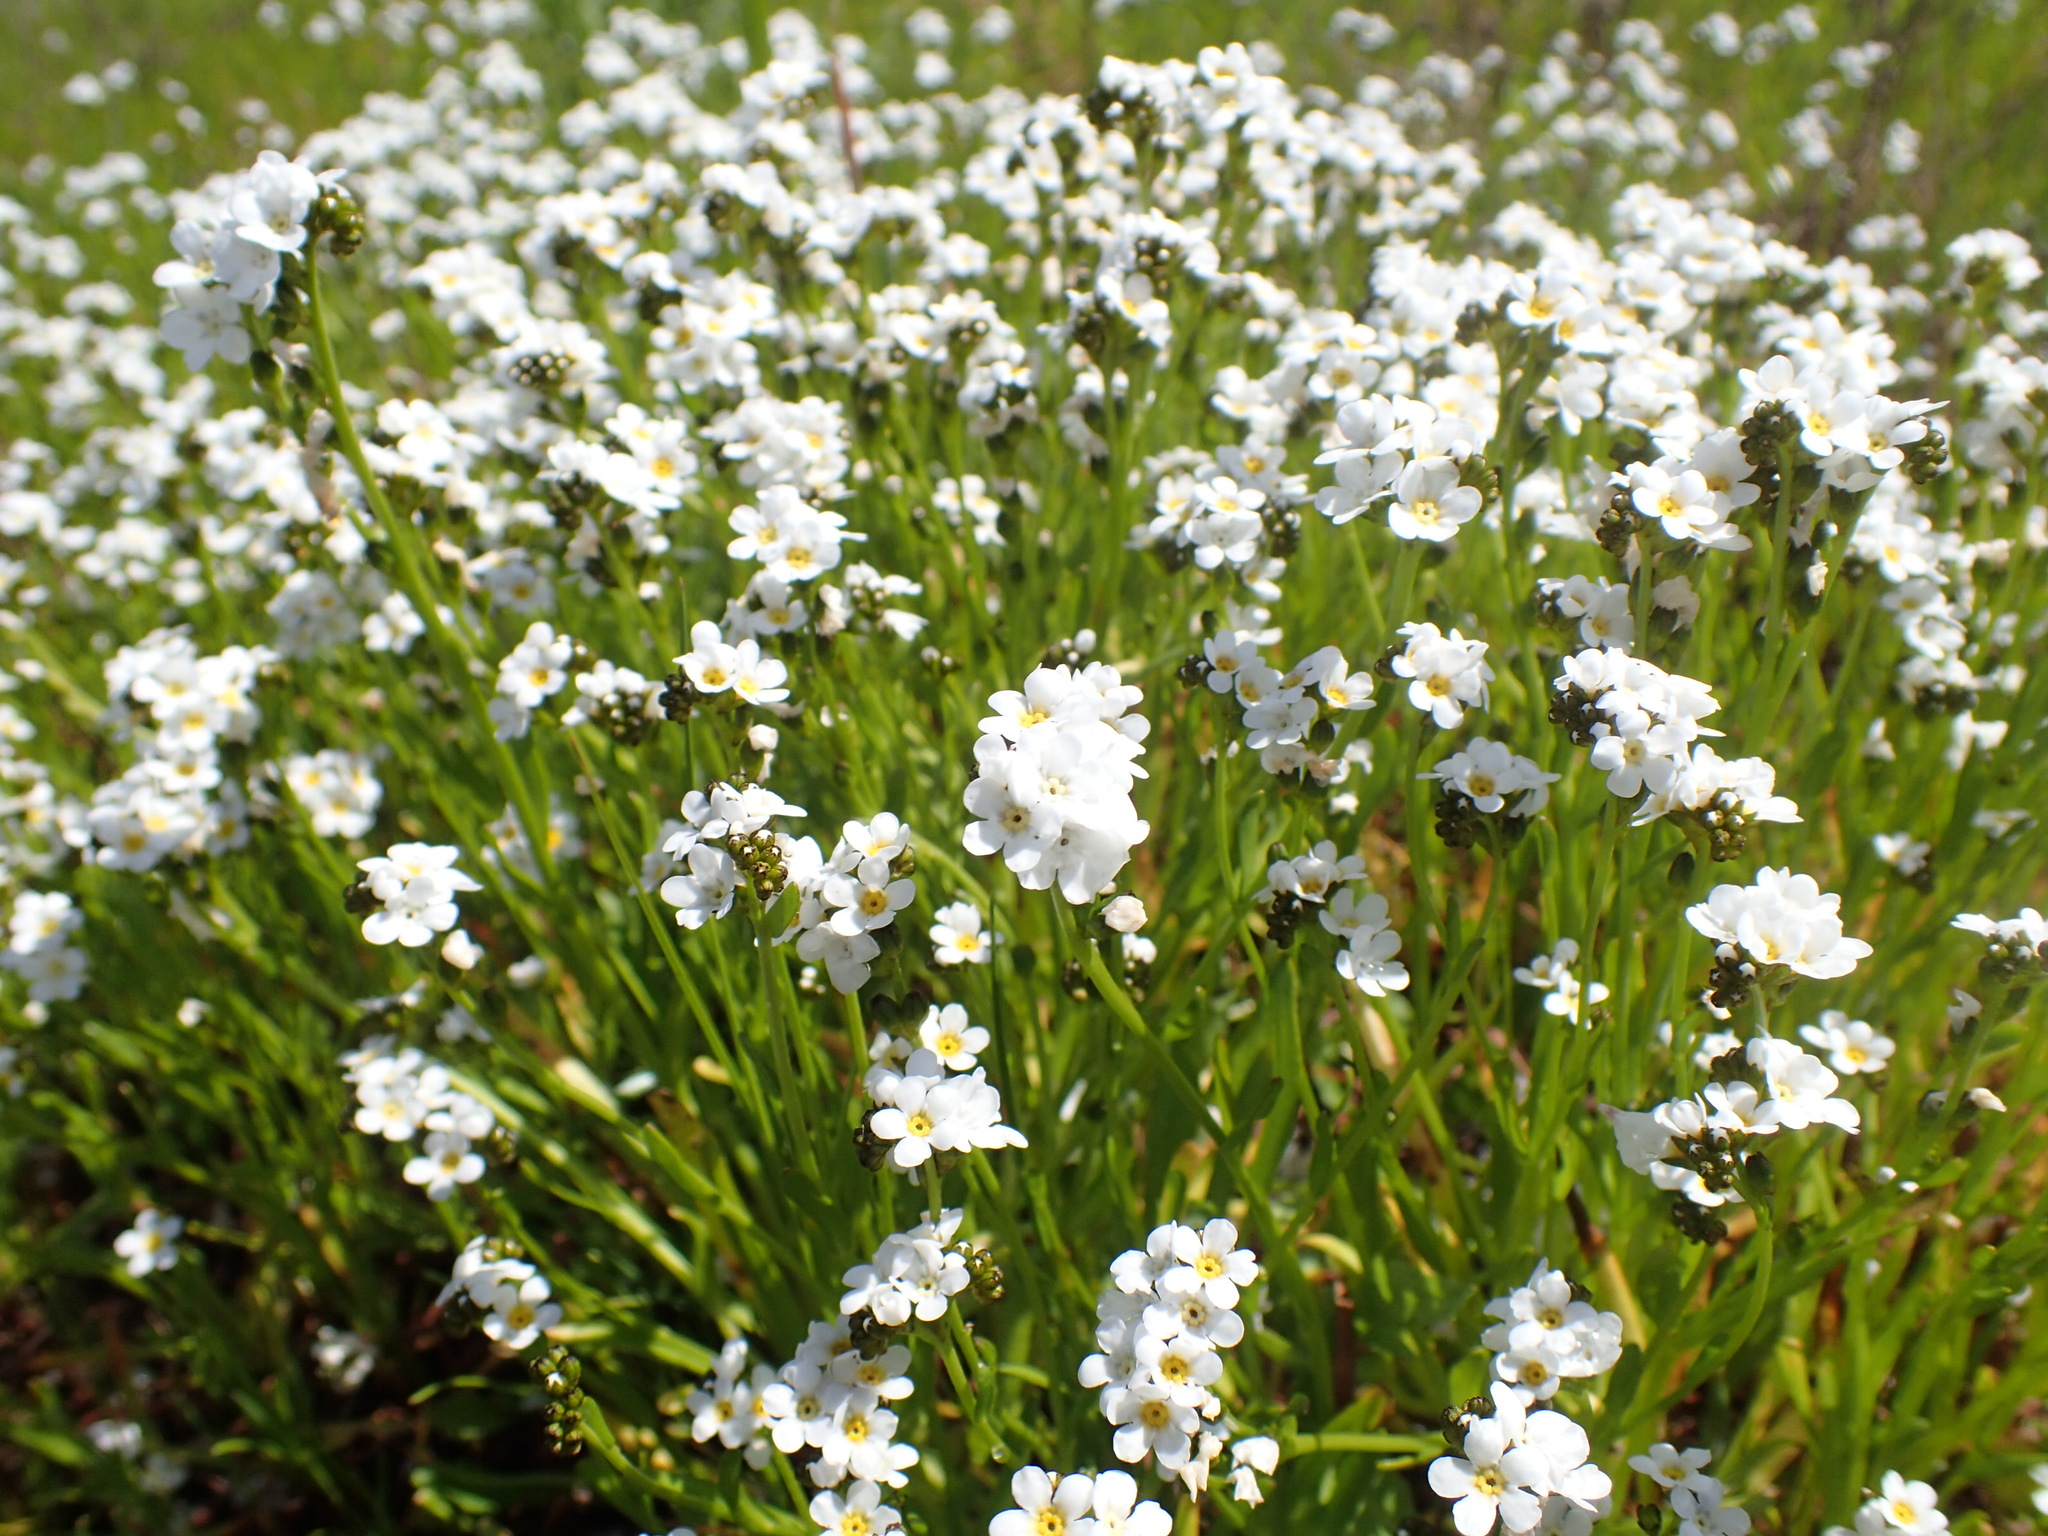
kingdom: Plantae
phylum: Tracheophyta
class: Magnoliopsida
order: Boraginales
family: Boraginaceae
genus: Plagiobothrys
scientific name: Plagiobothrys strictus
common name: Calistoga allocarya
